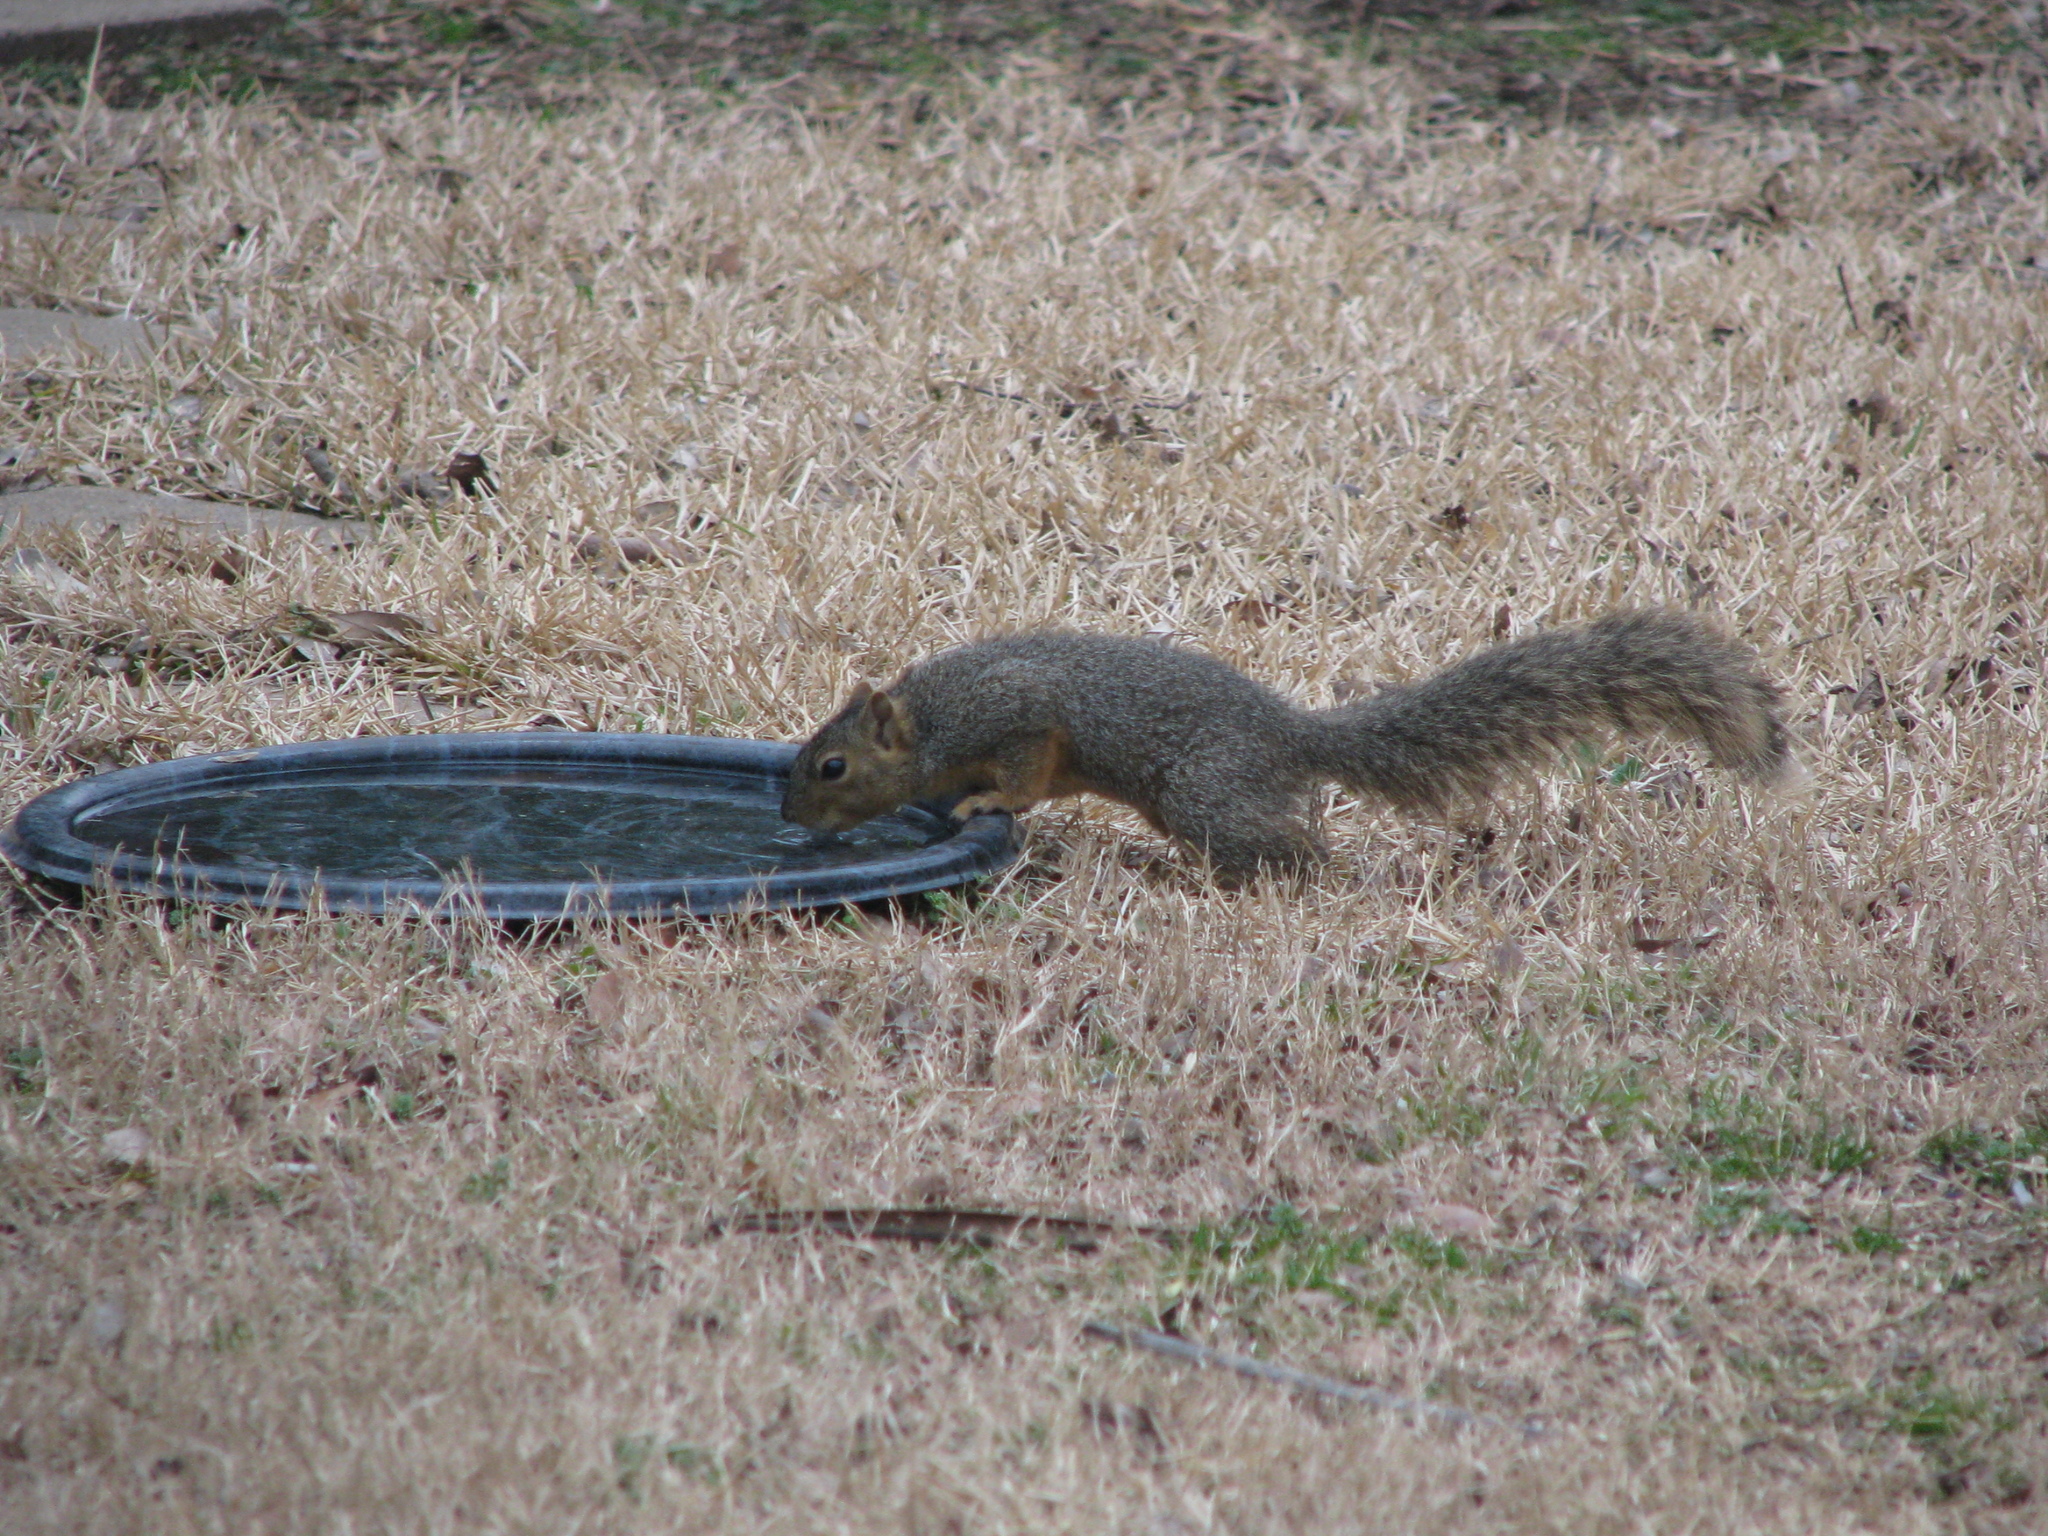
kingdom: Animalia
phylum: Chordata
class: Mammalia
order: Rodentia
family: Sciuridae
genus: Sciurus
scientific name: Sciurus niger
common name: Fox squirrel
